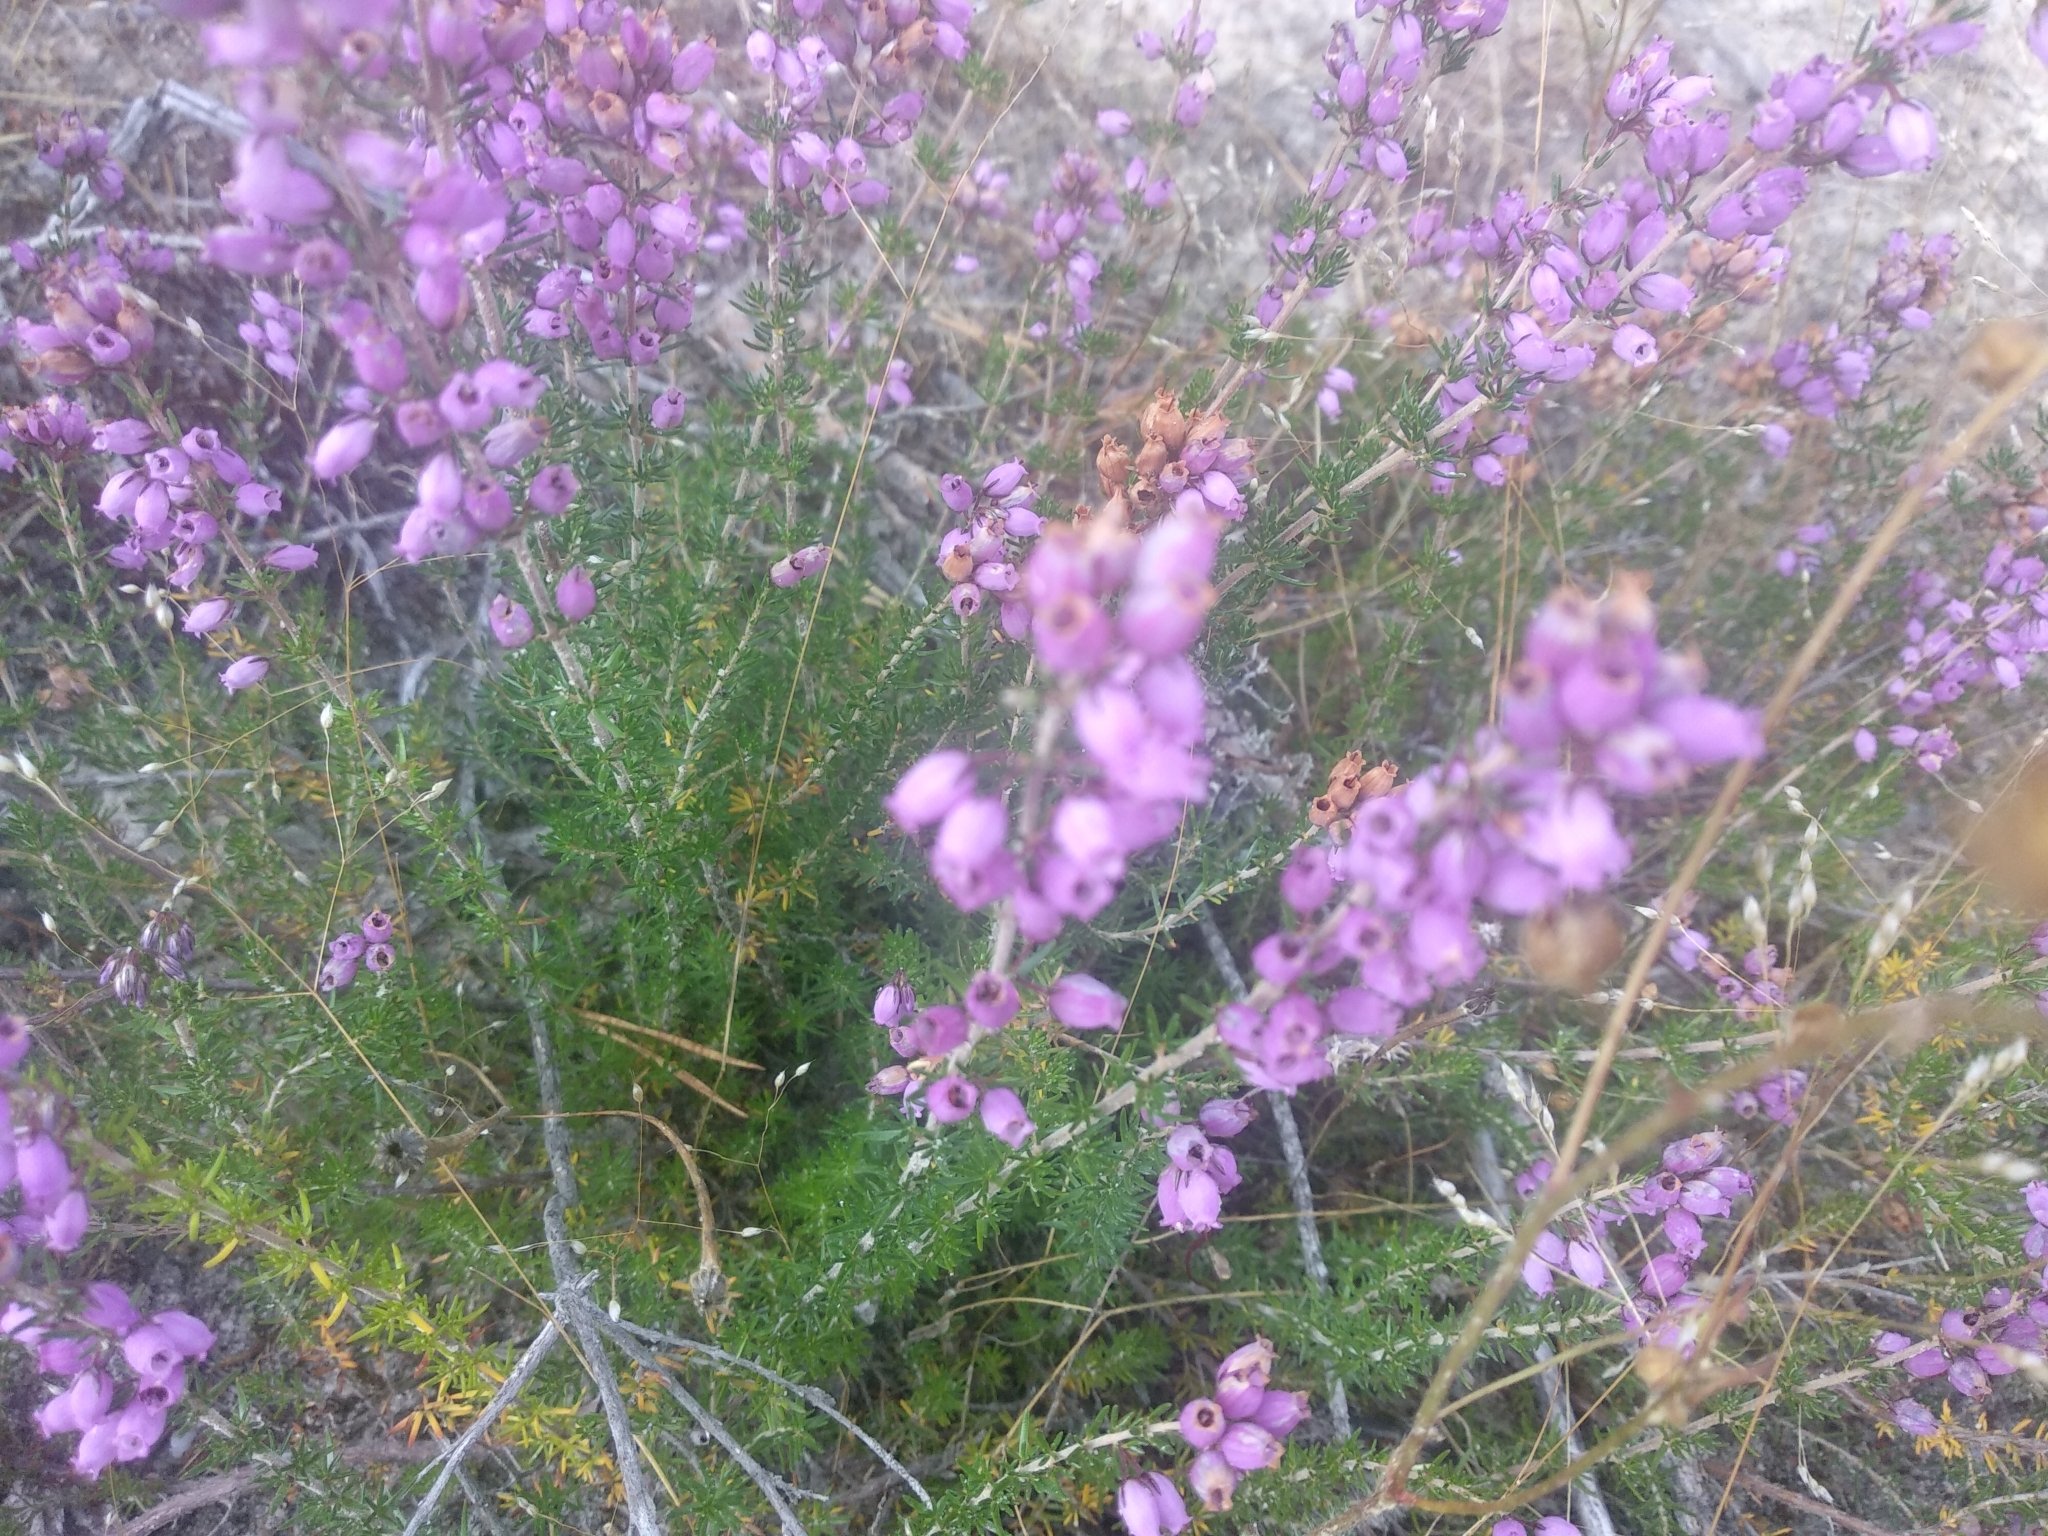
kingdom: Plantae
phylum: Tracheophyta
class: Magnoliopsida
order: Ericales
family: Ericaceae
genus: Erica
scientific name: Erica cinerea
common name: Bell heather
